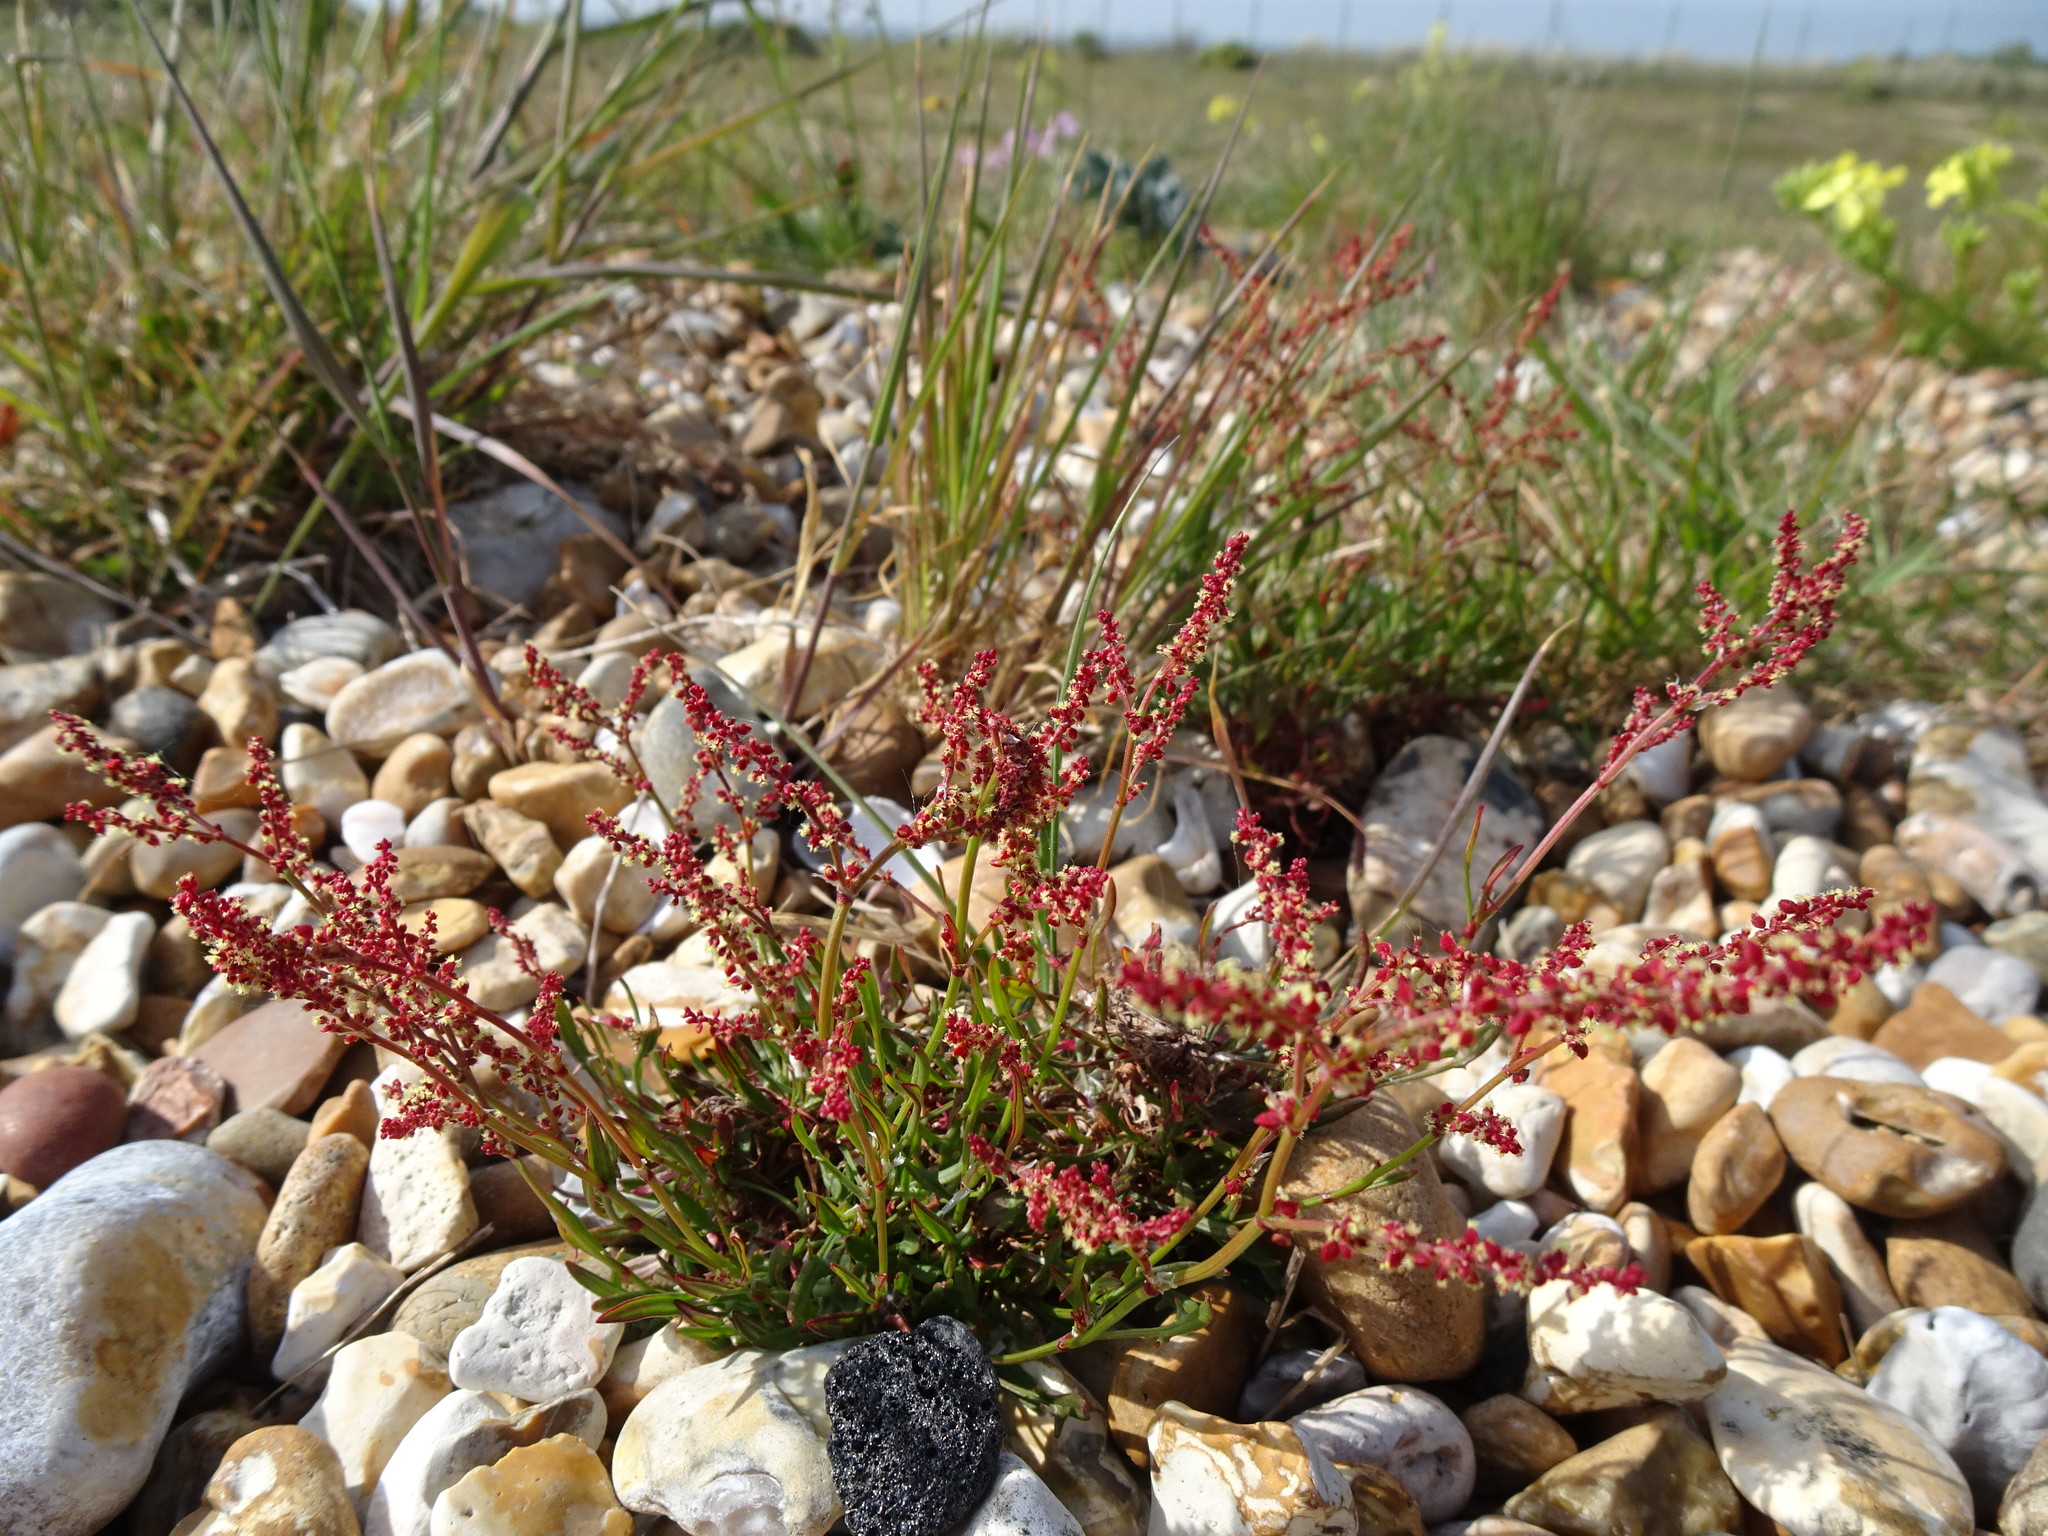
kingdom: Plantae
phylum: Tracheophyta
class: Magnoliopsida
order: Caryophyllales
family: Polygonaceae
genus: Rumex
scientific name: Rumex acetosella
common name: Common sheep sorrel
